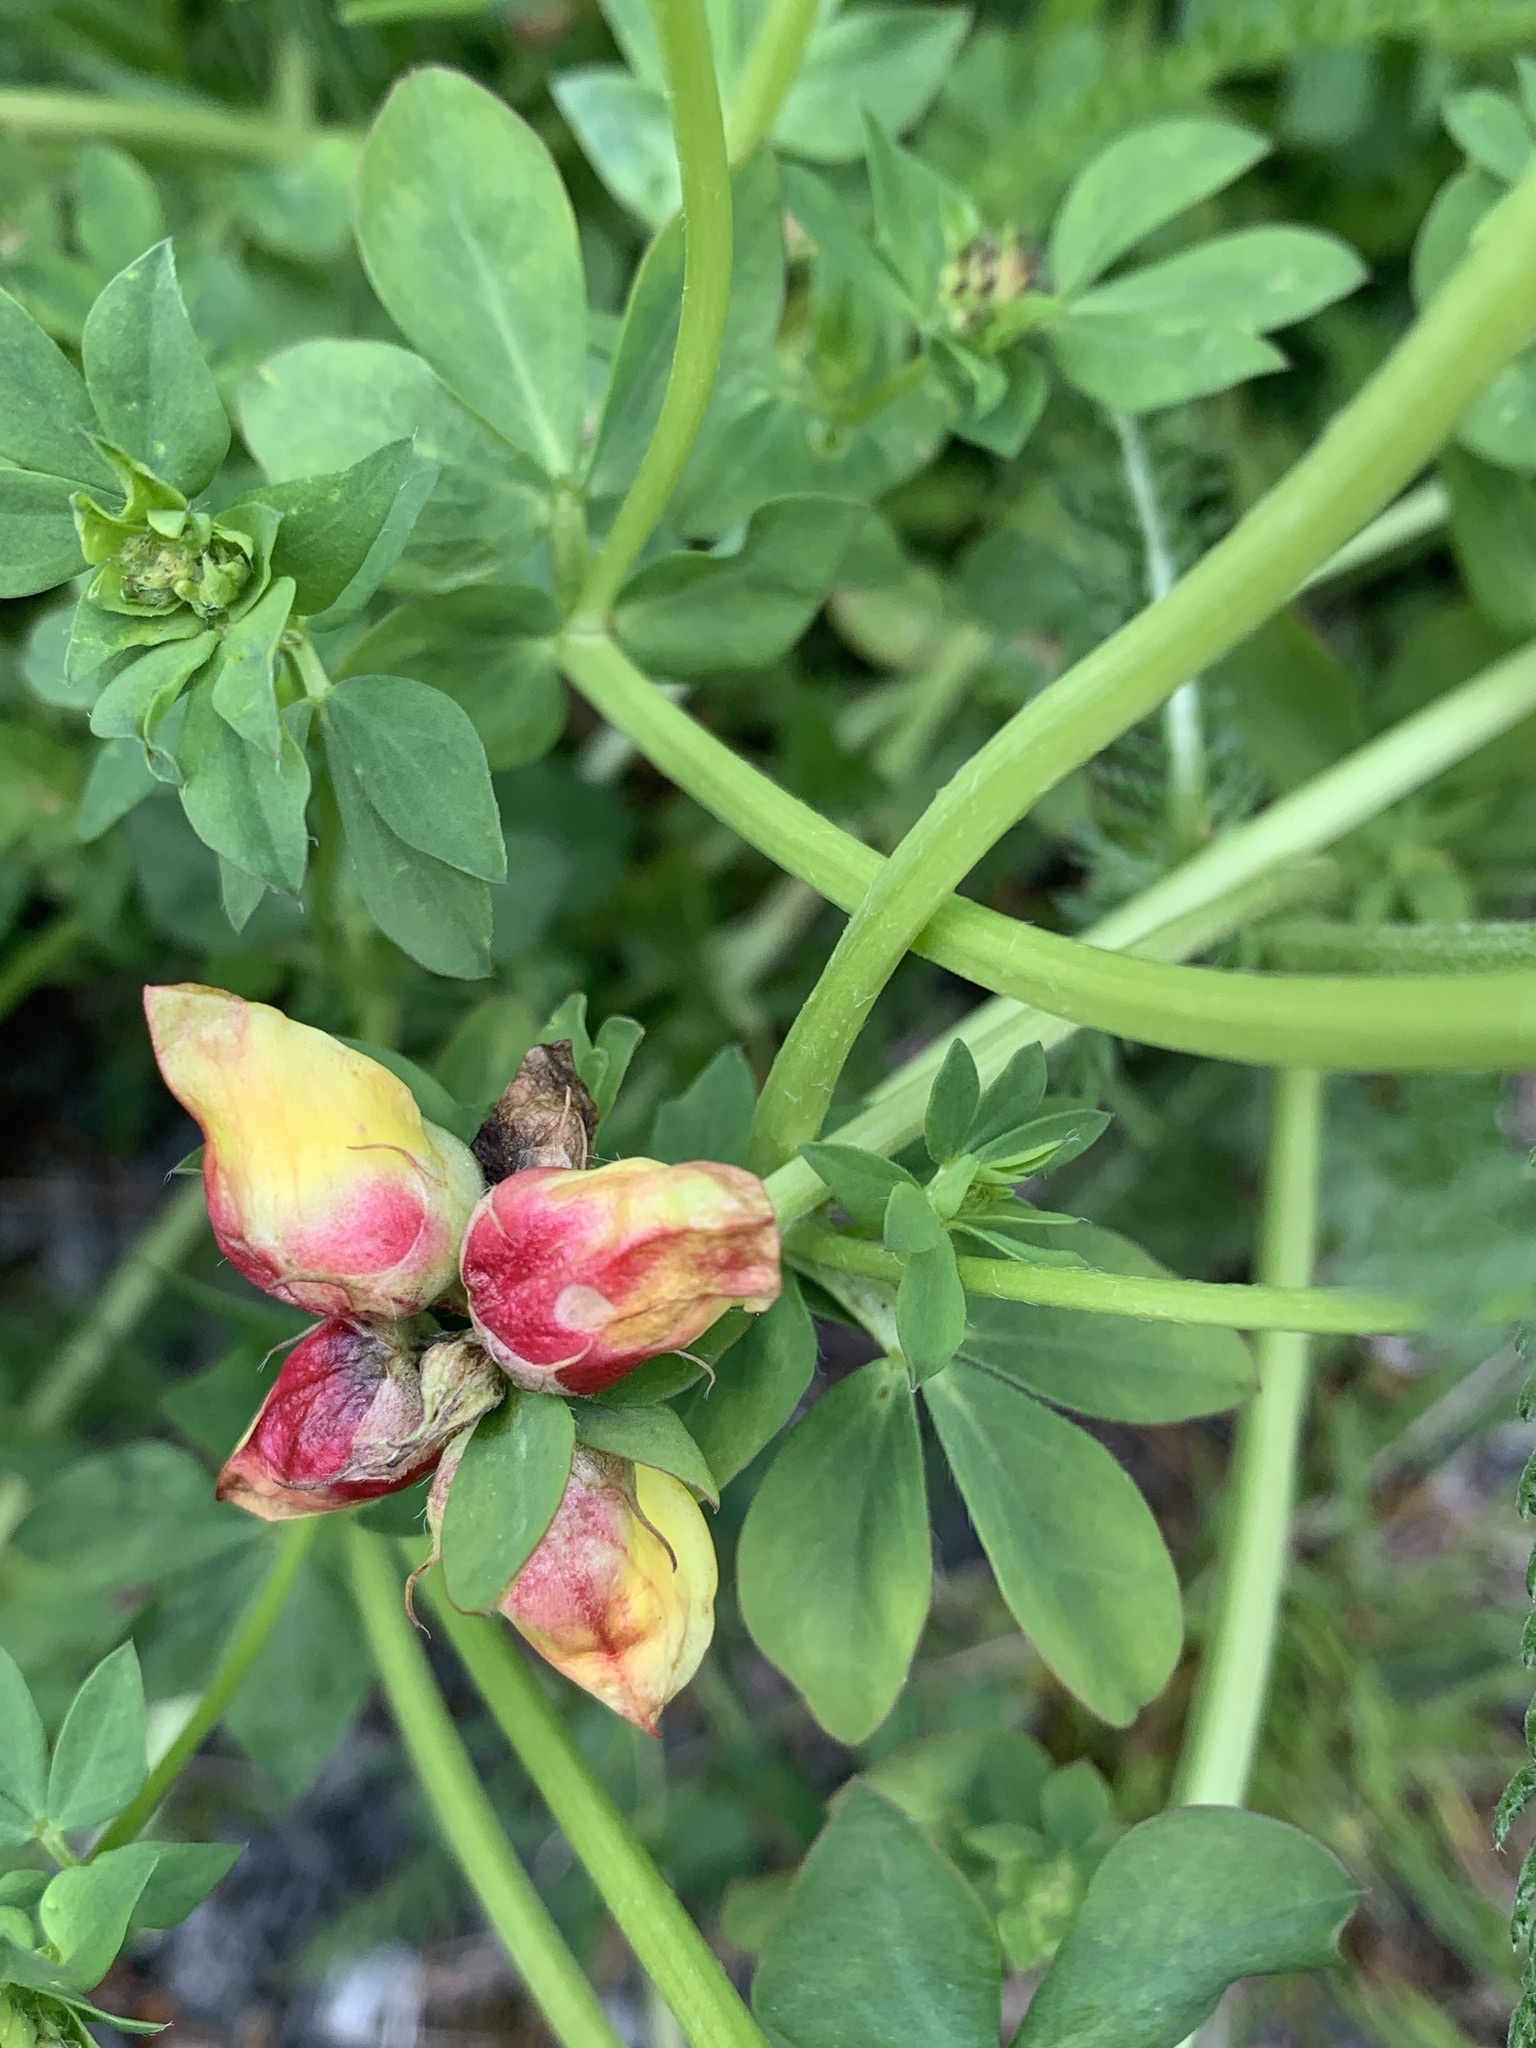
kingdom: Plantae
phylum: Tracheophyta
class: Magnoliopsida
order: Fabales
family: Fabaceae
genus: Lotus
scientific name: Lotus corniculatus
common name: Common bird's-foot-trefoil
